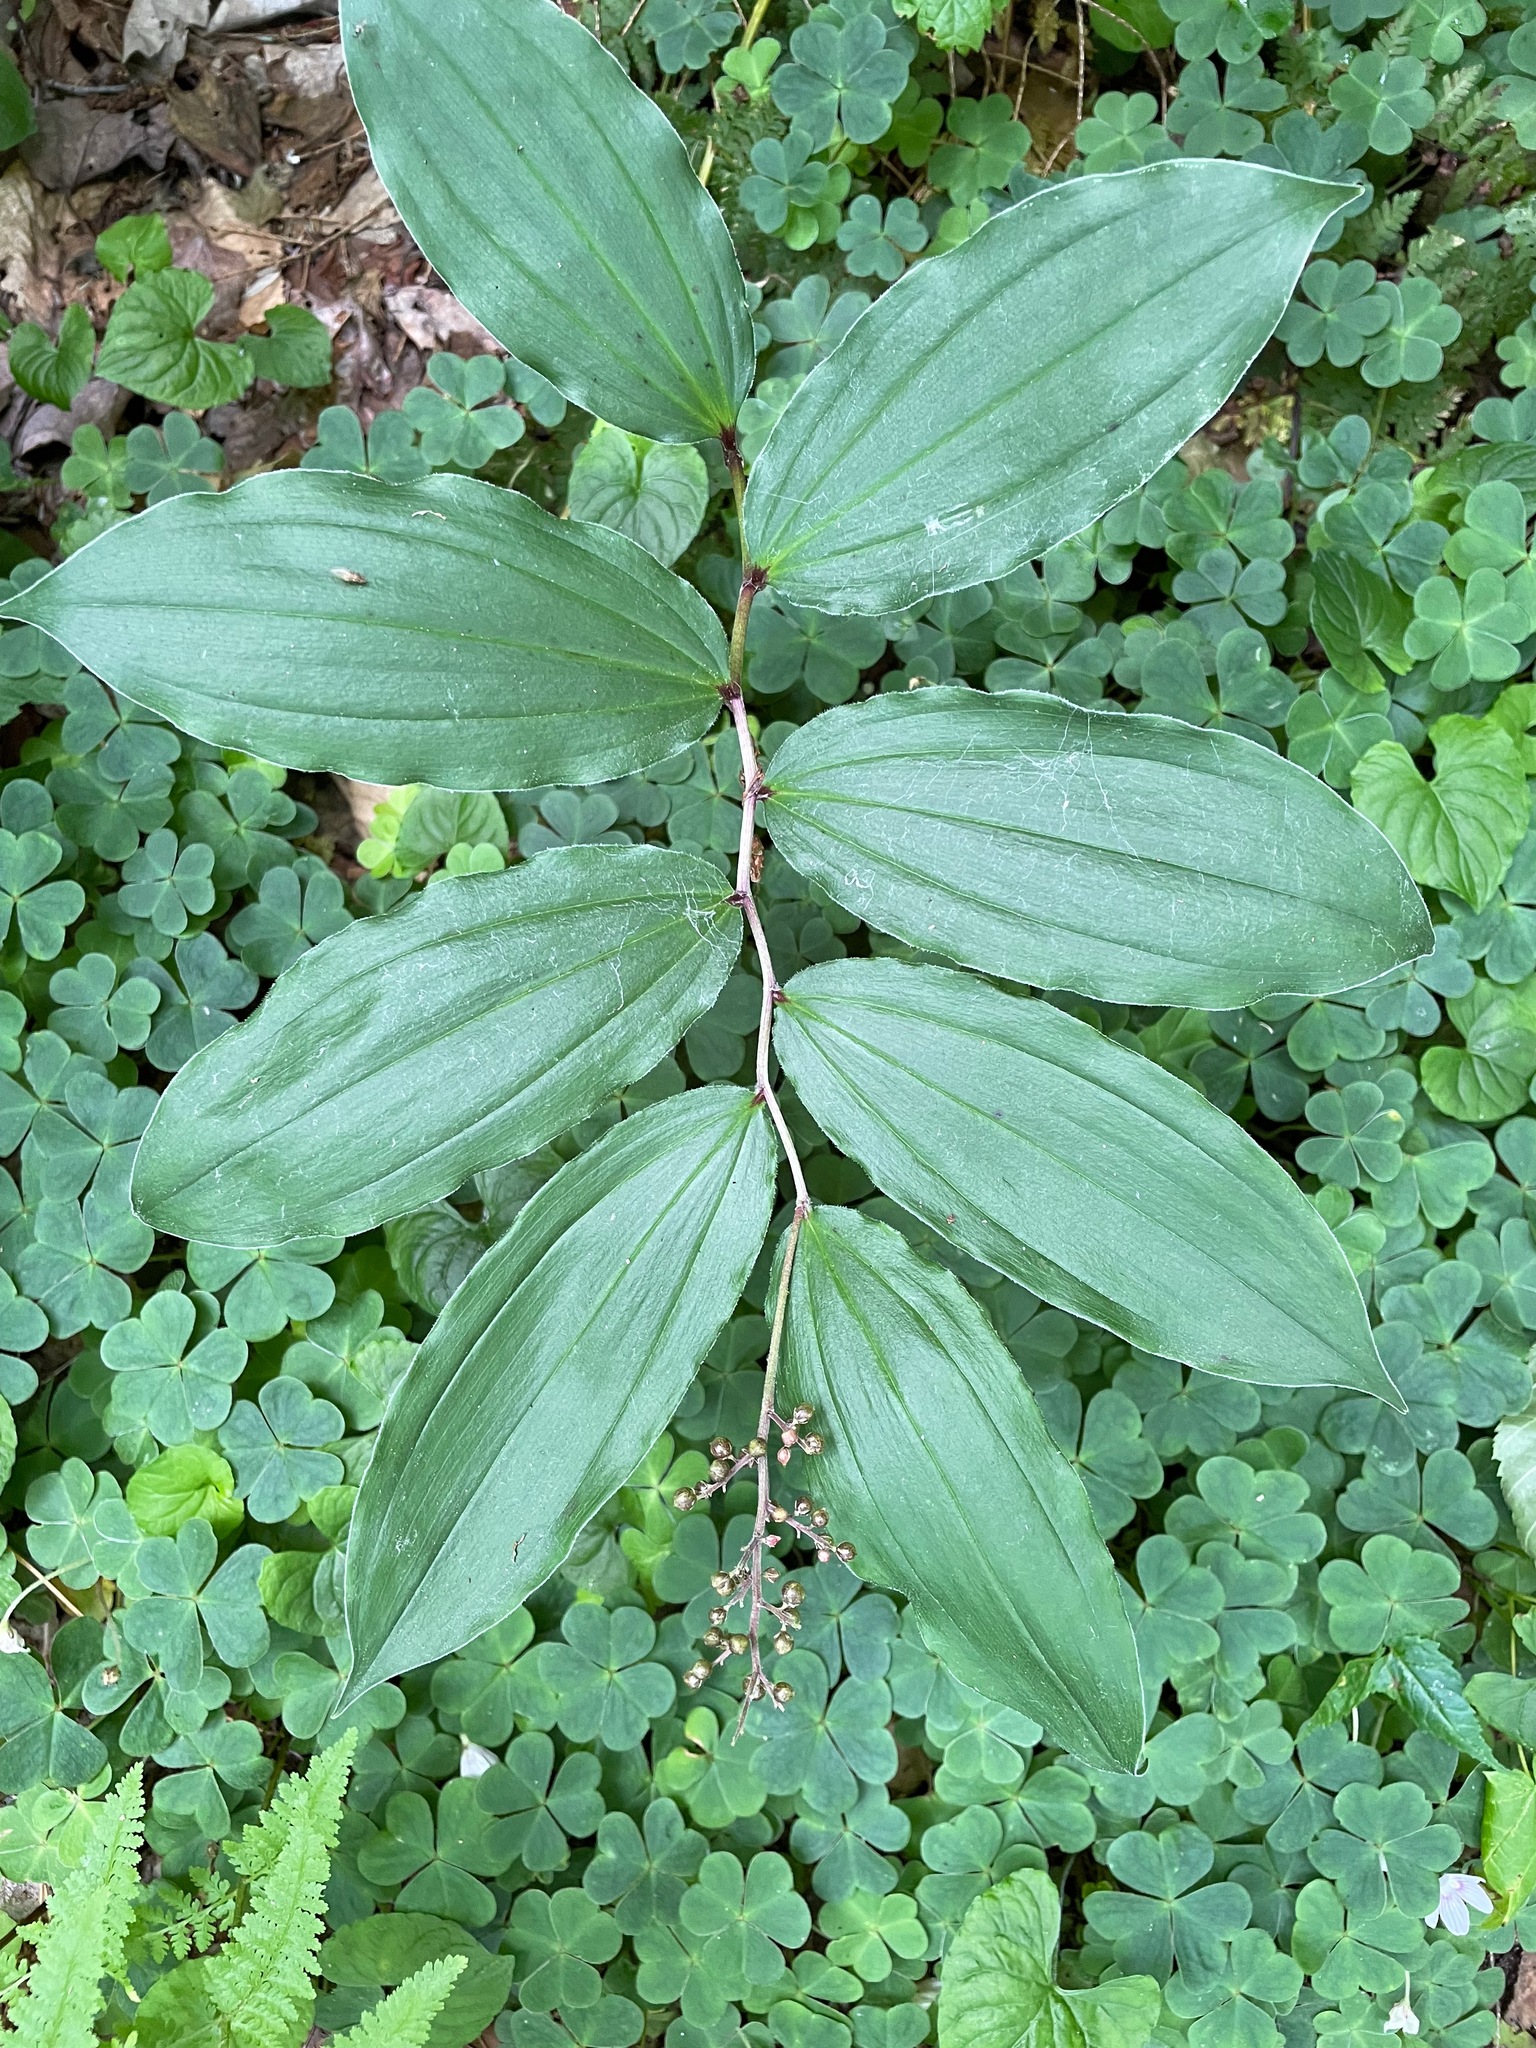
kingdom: Plantae
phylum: Tracheophyta
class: Liliopsida
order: Asparagales
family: Asparagaceae
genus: Maianthemum
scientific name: Maianthemum racemosum
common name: False spikenard
